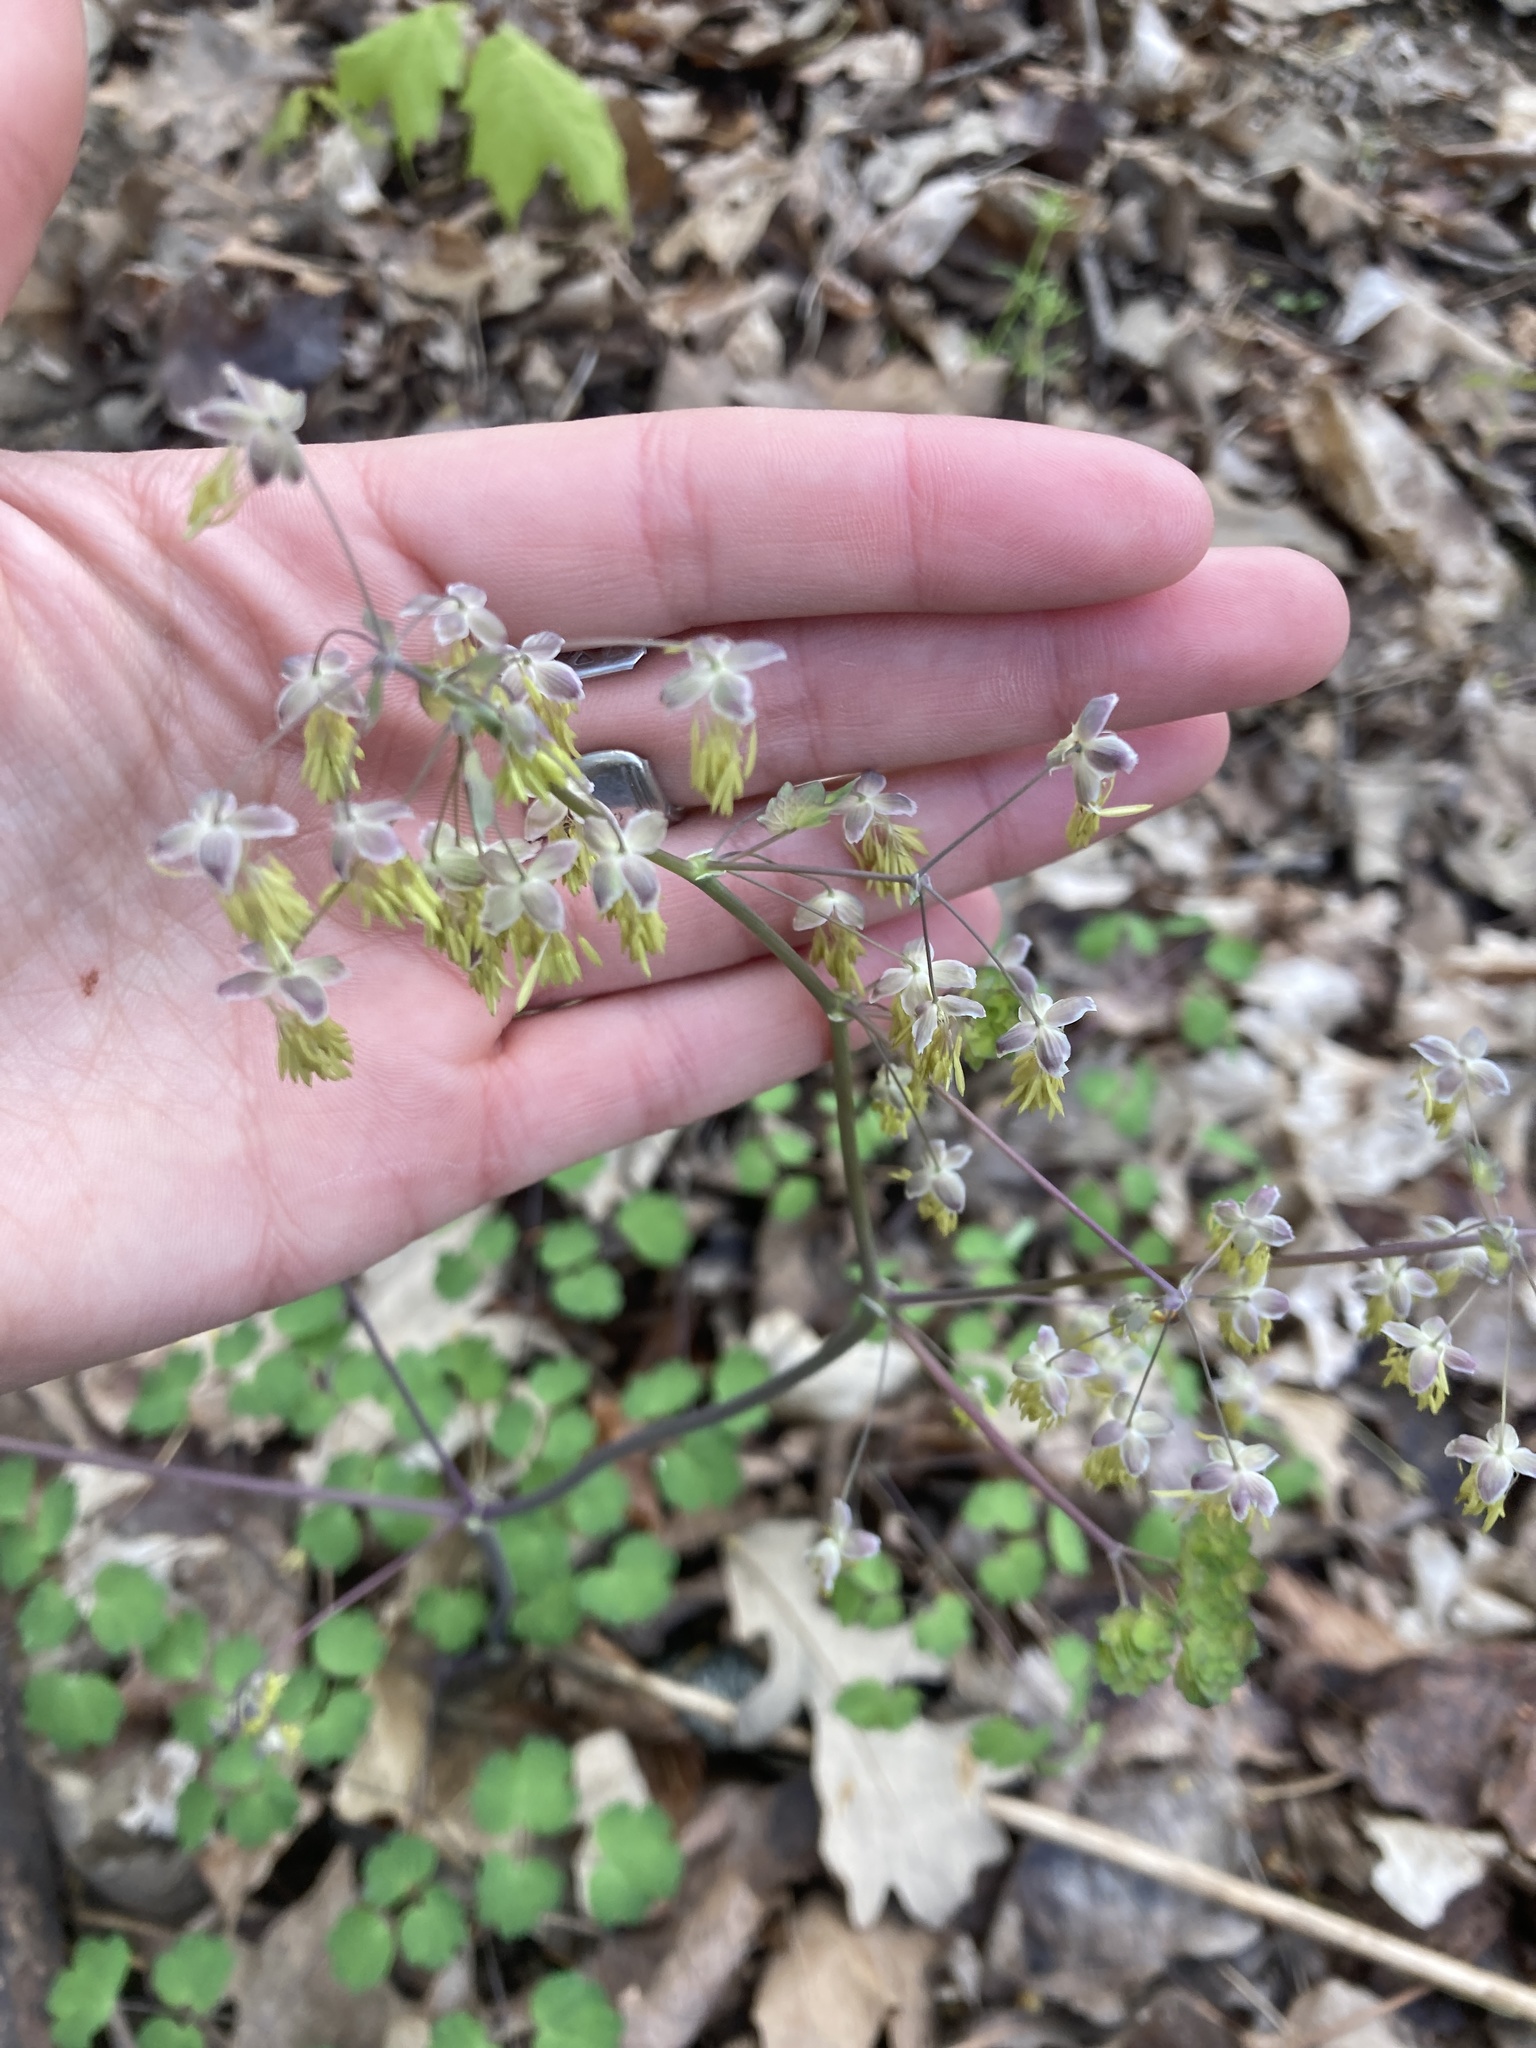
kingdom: Plantae
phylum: Tracheophyta
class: Magnoliopsida
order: Ranunculales
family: Ranunculaceae
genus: Thalictrum
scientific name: Thalictrum dioicum
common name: Early meadow-rue
